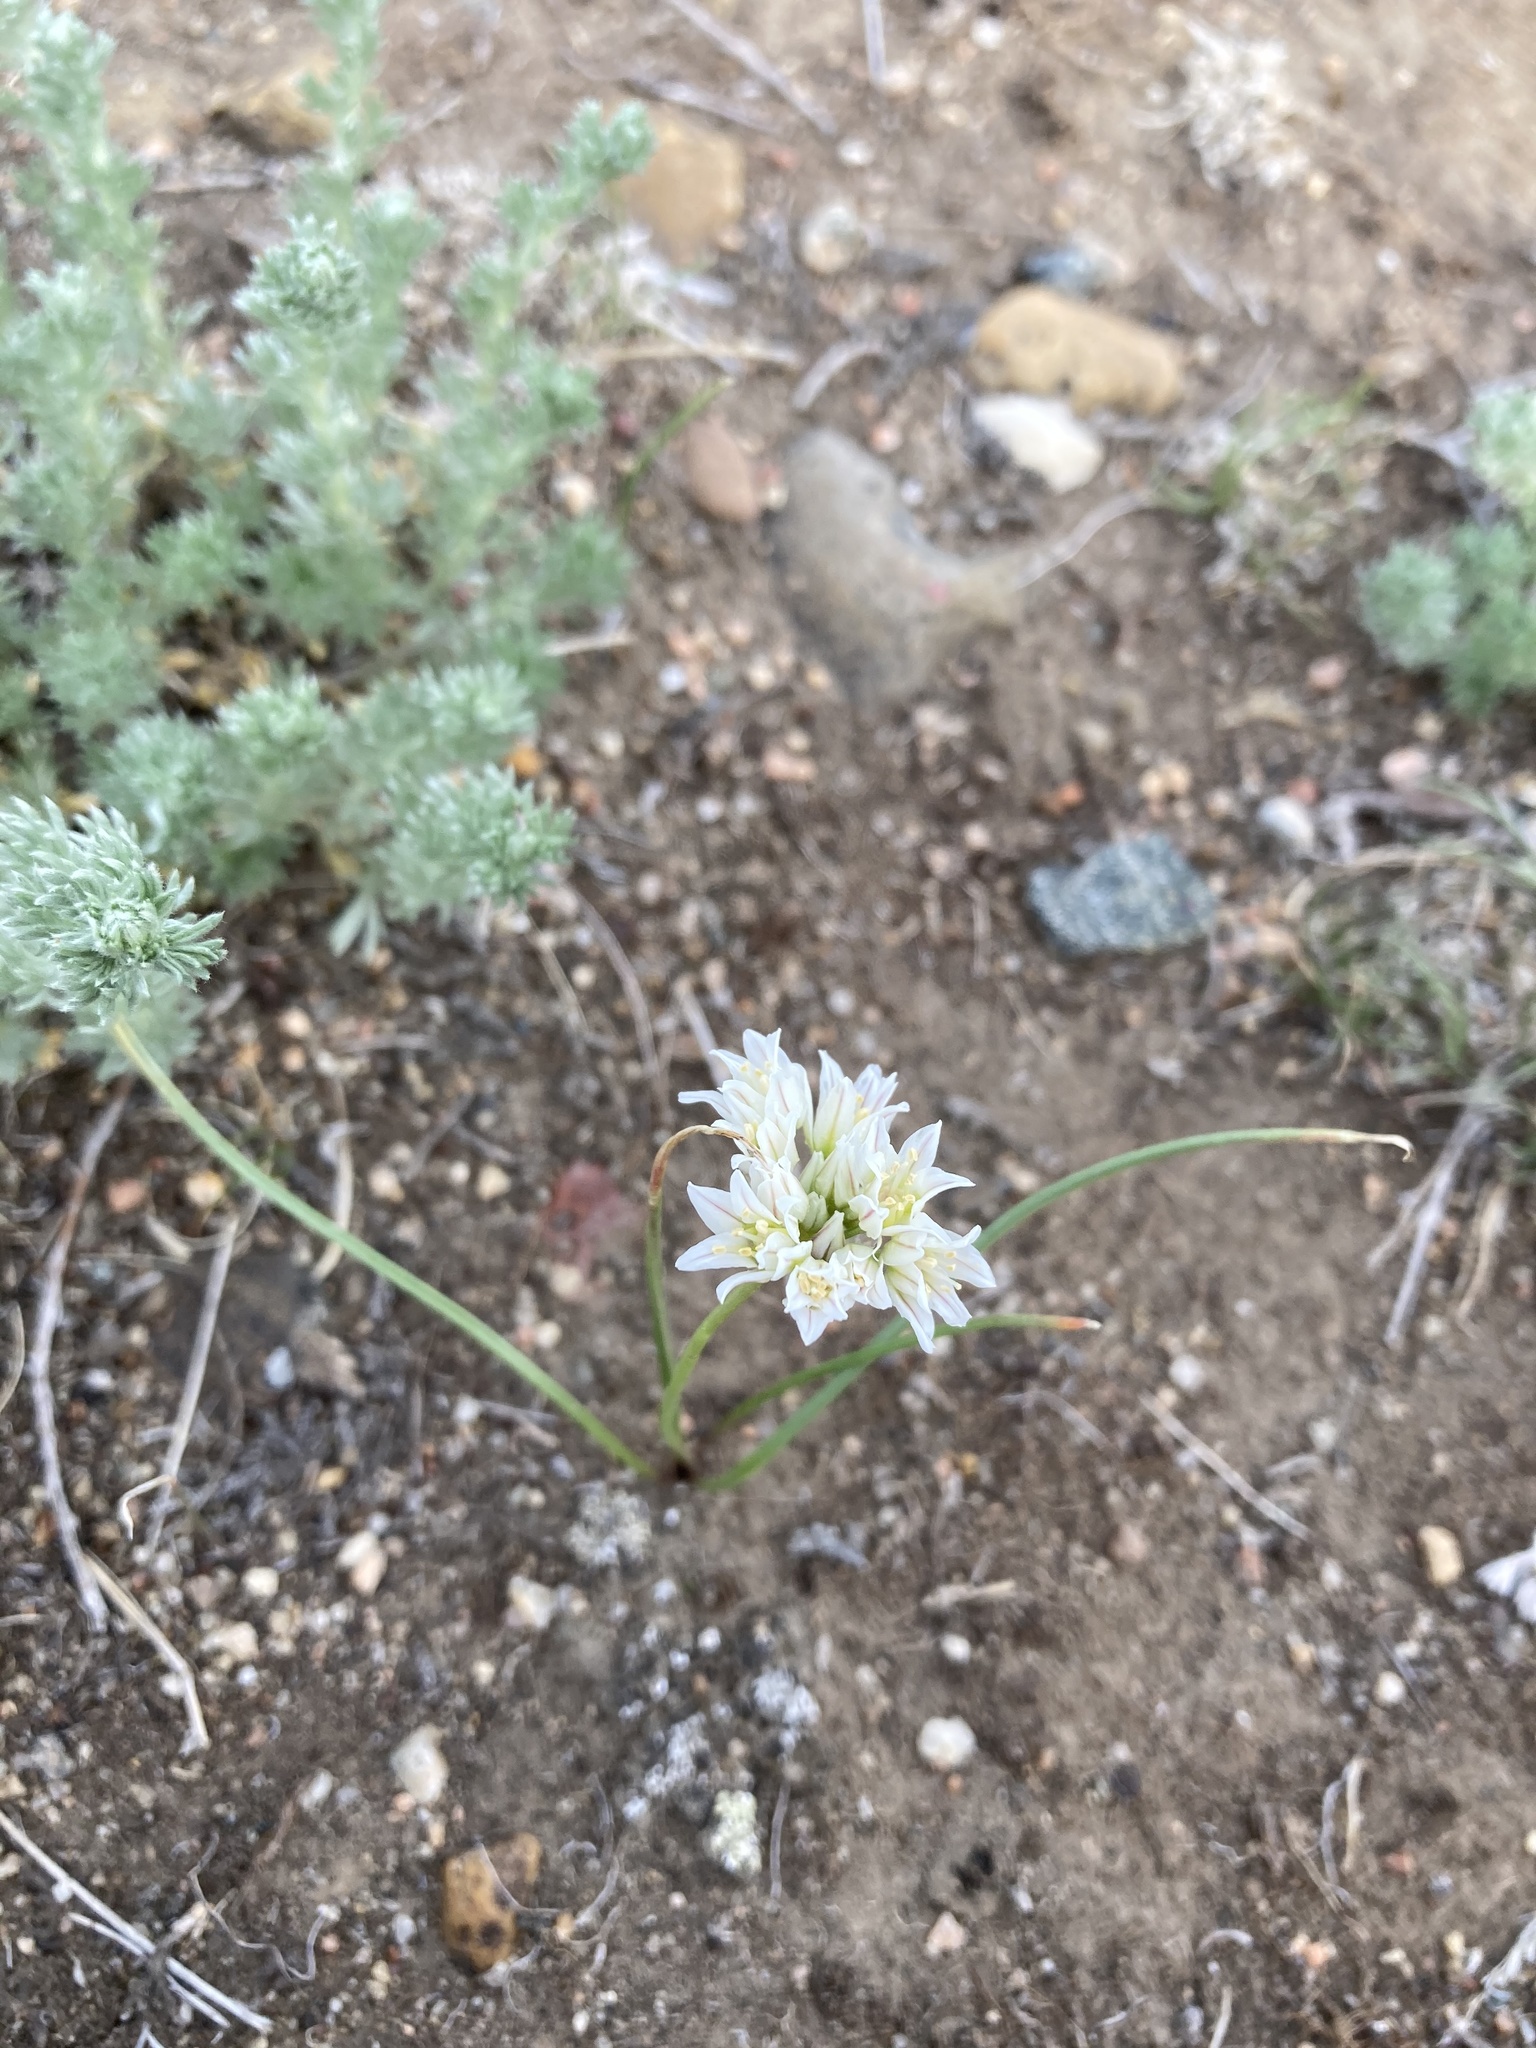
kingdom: Plantae
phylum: Tracheophyta
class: Liliopsida
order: Asparagales
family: Amaryllidaceae
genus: Allium
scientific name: Allium textile
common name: Prairie onion
